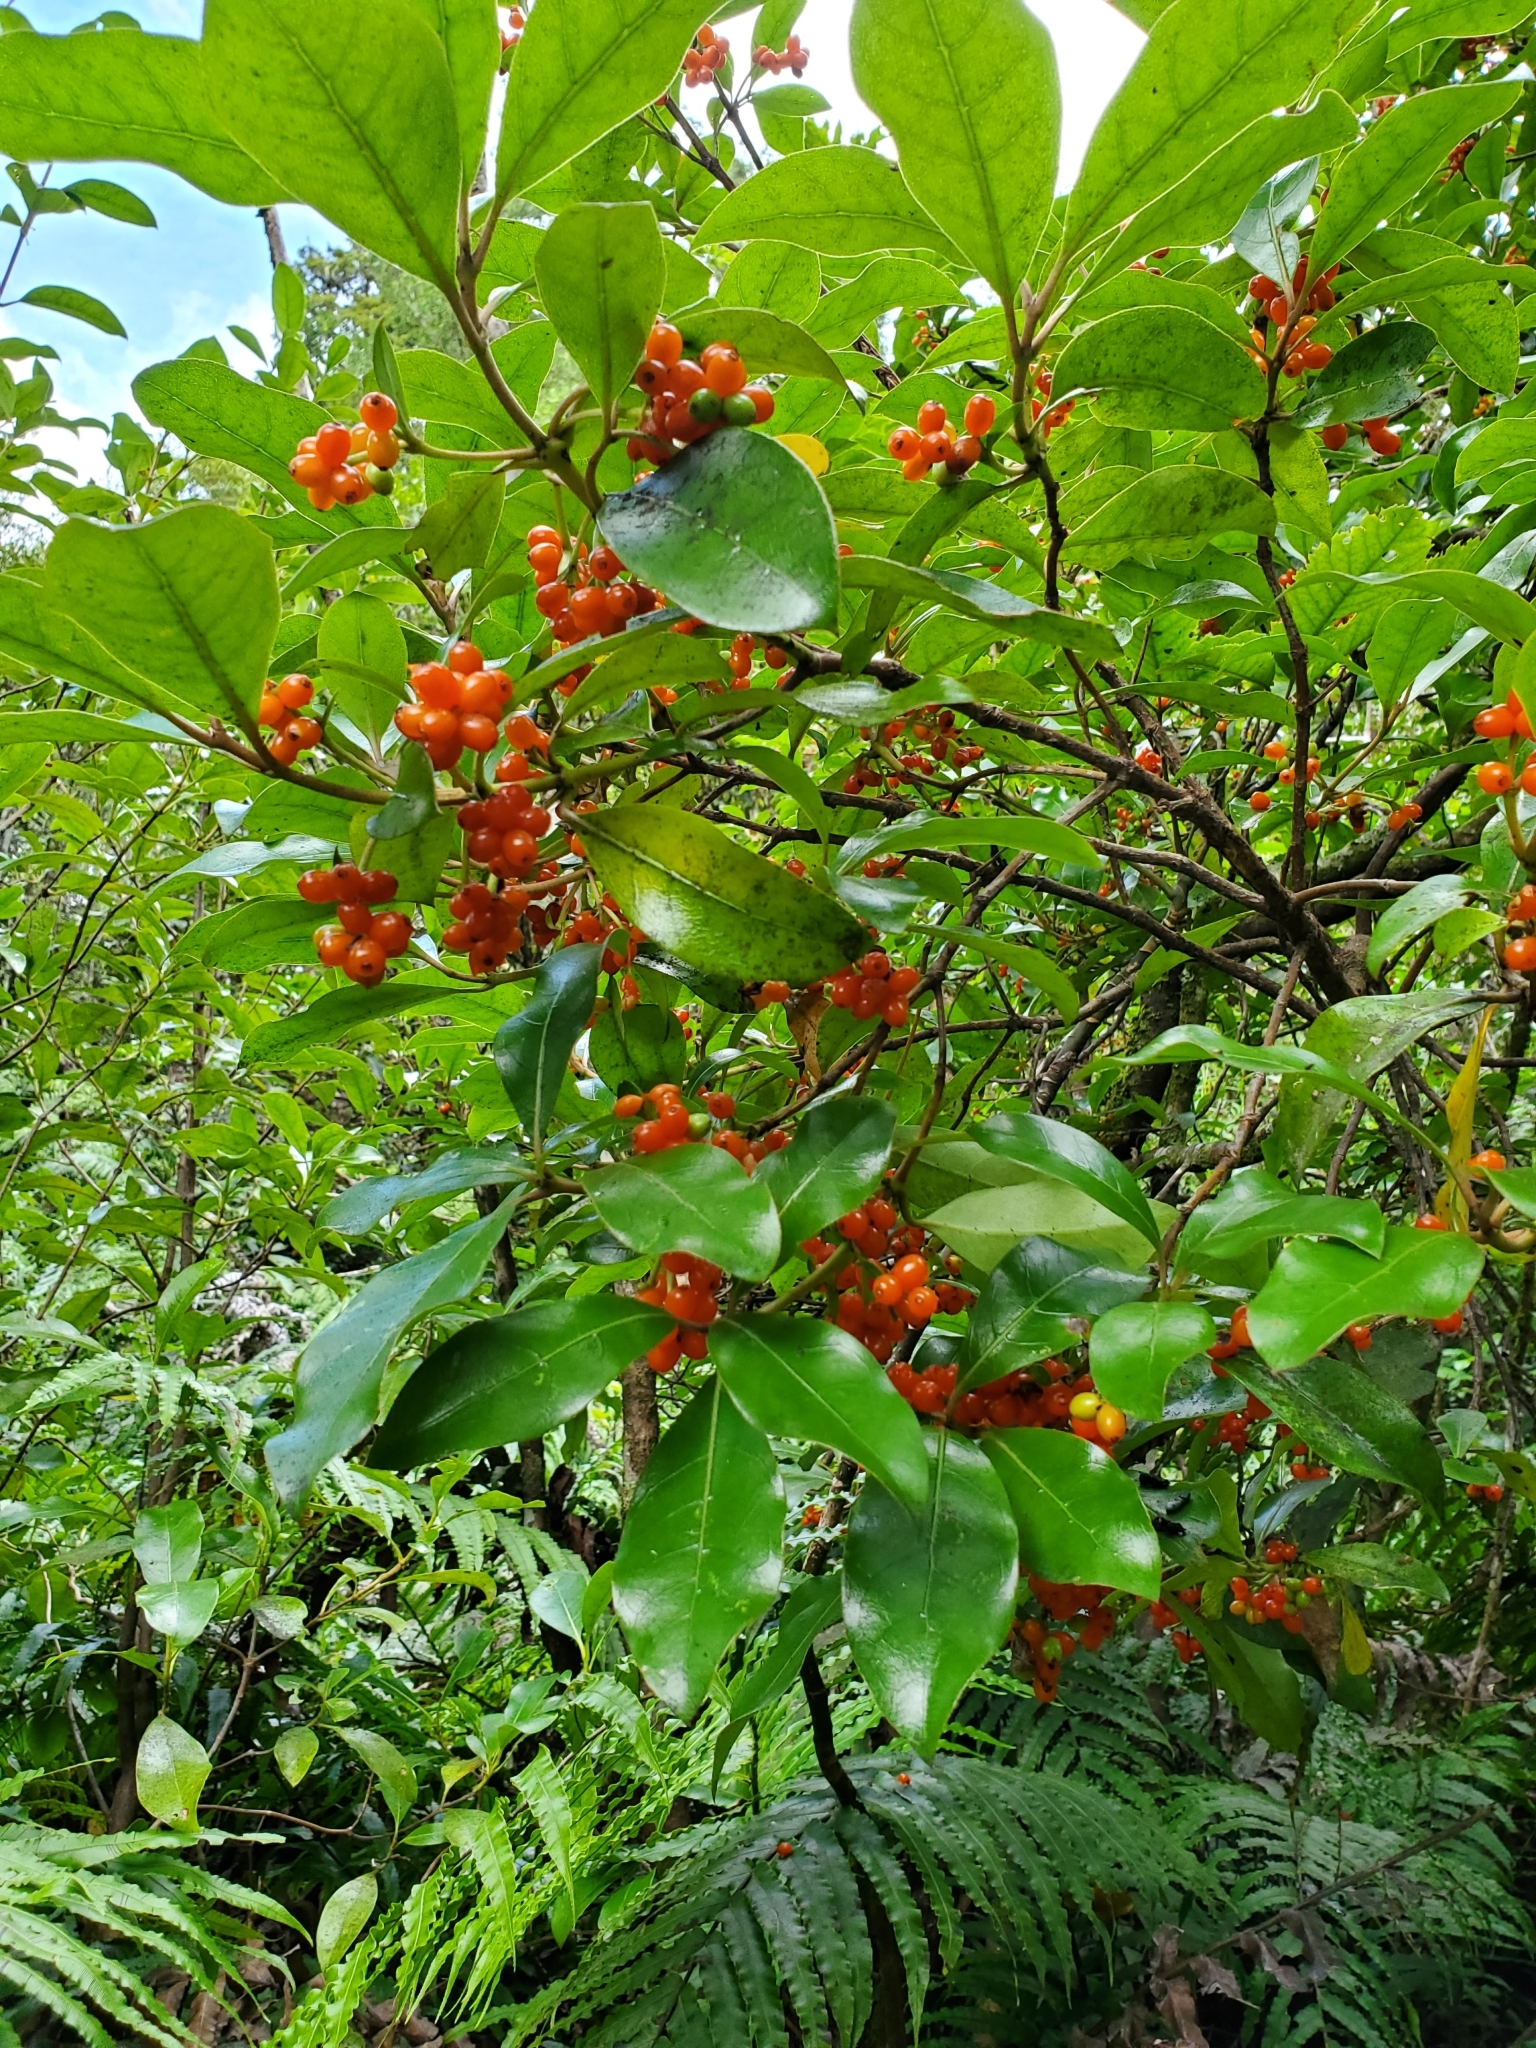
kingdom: Plantae
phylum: Tracheophyta
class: Magnoliopsida
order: Gentianales
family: Rubiaceae
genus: Coprosma
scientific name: Coprosma autumnalis
